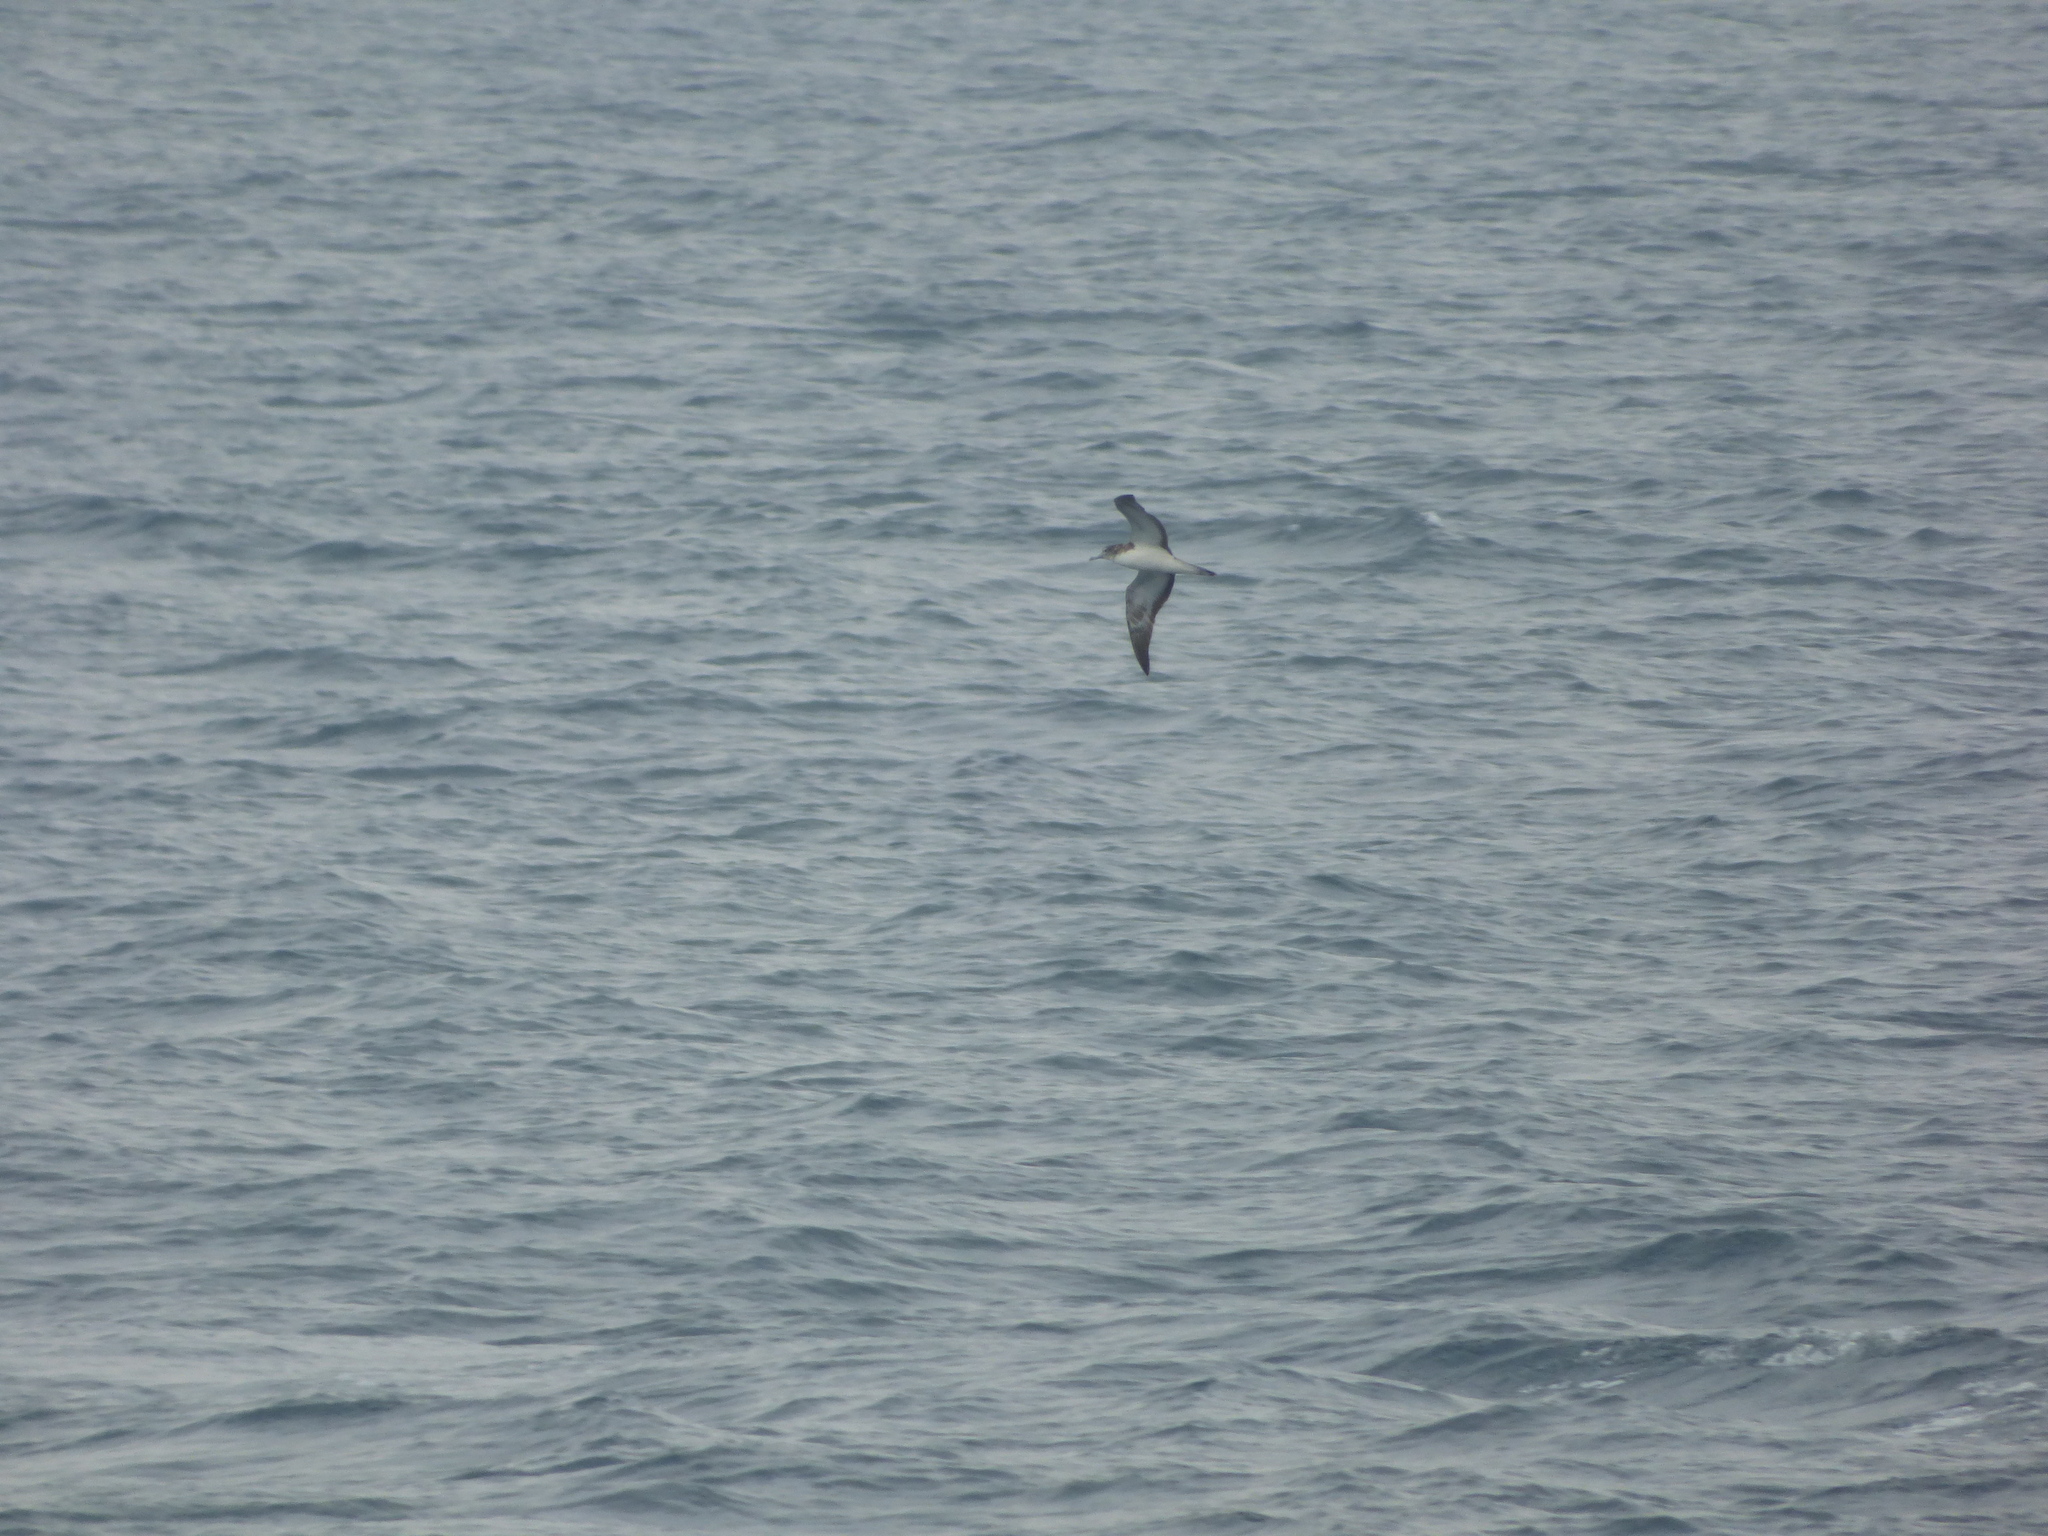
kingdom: Animalia
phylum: Chordata
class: Aves
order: Procellariiformes
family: Procellariidae
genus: Calonectris
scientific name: Calonectris leucomelas
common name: Streaked shearwater
